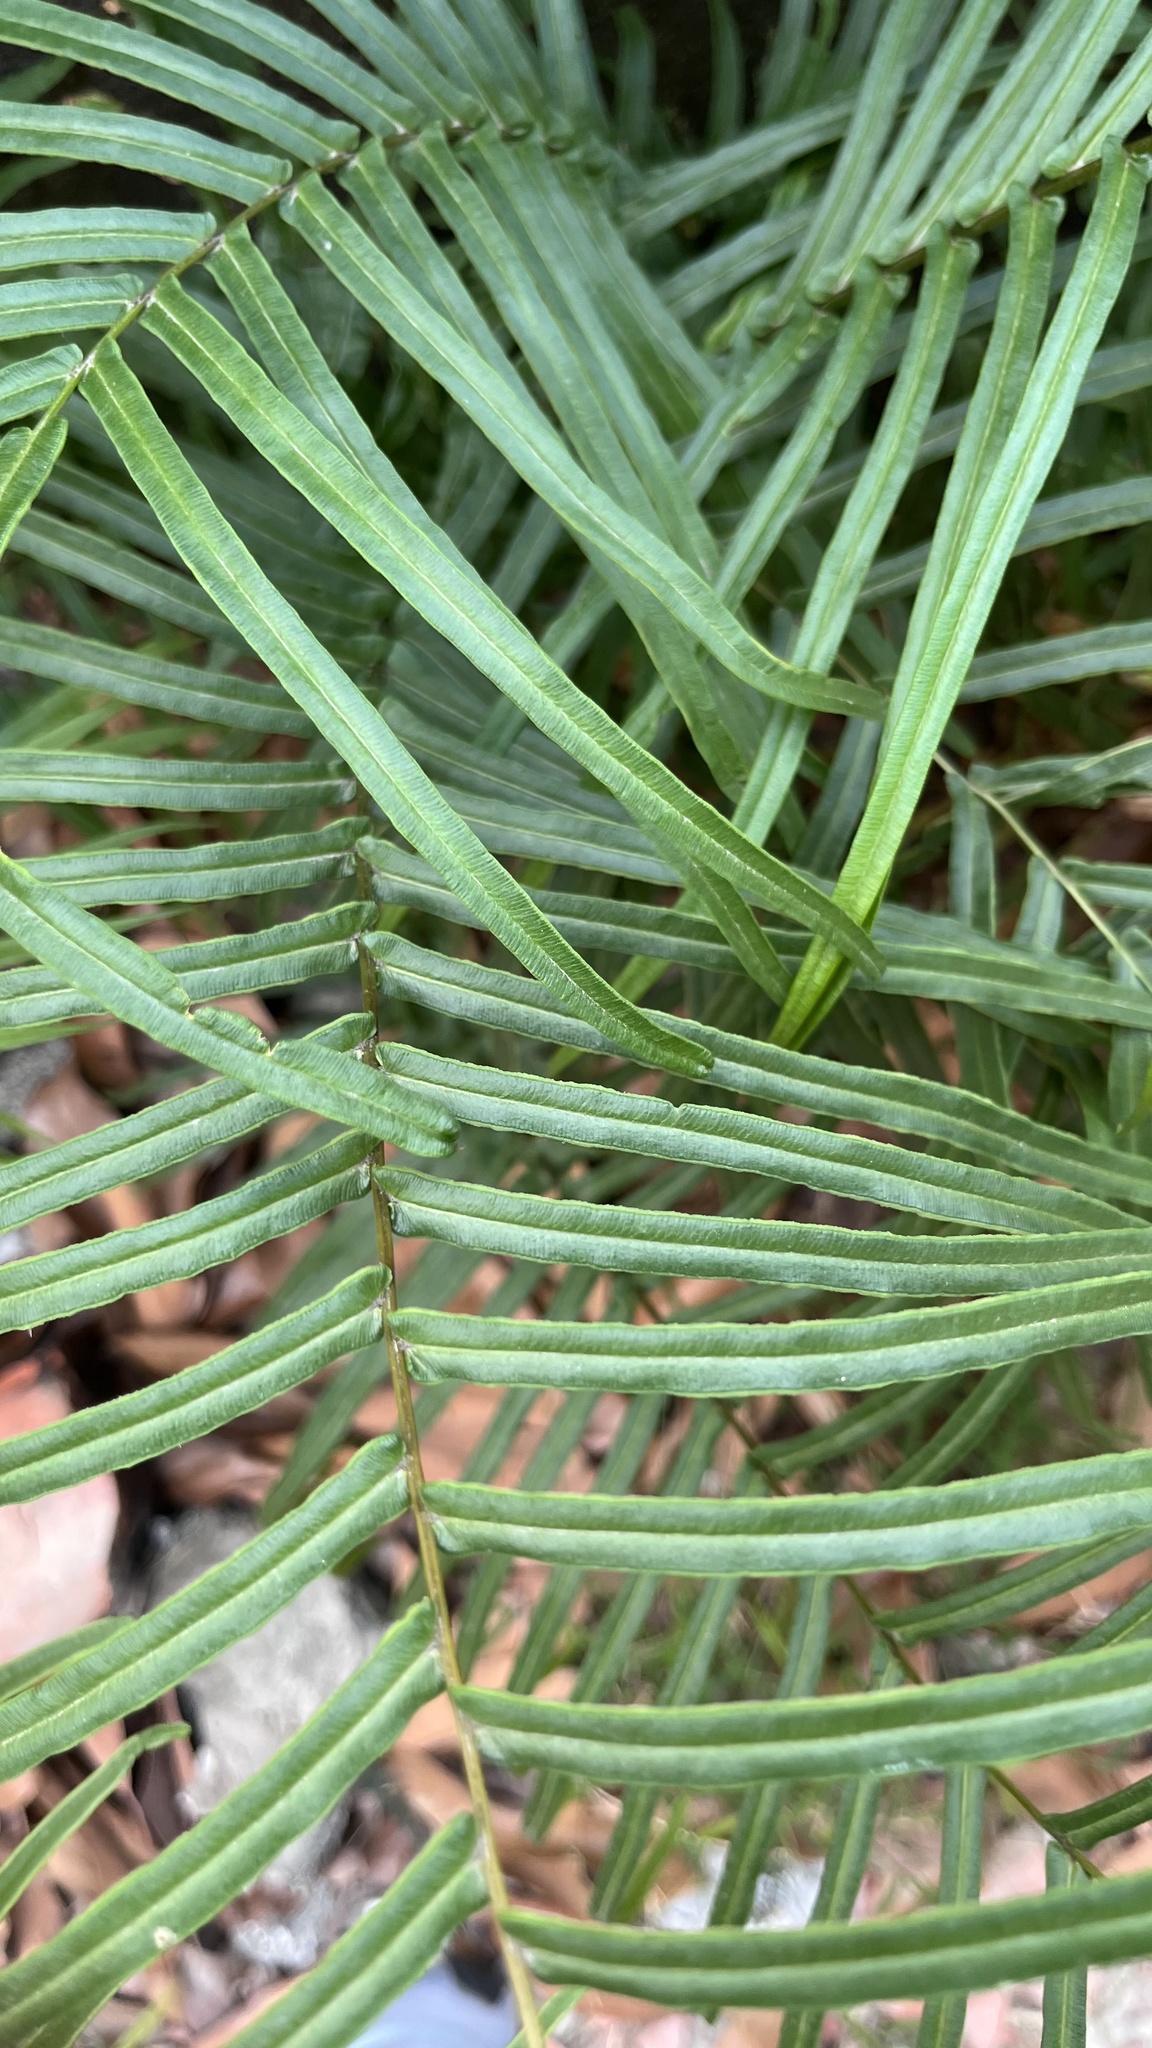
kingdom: Plantae
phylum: Tracheophyta
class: Polypodiopsida
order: Polypodiales
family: Pteridaceae
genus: Pteris
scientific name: Pteris vittata
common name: Ladder brake
